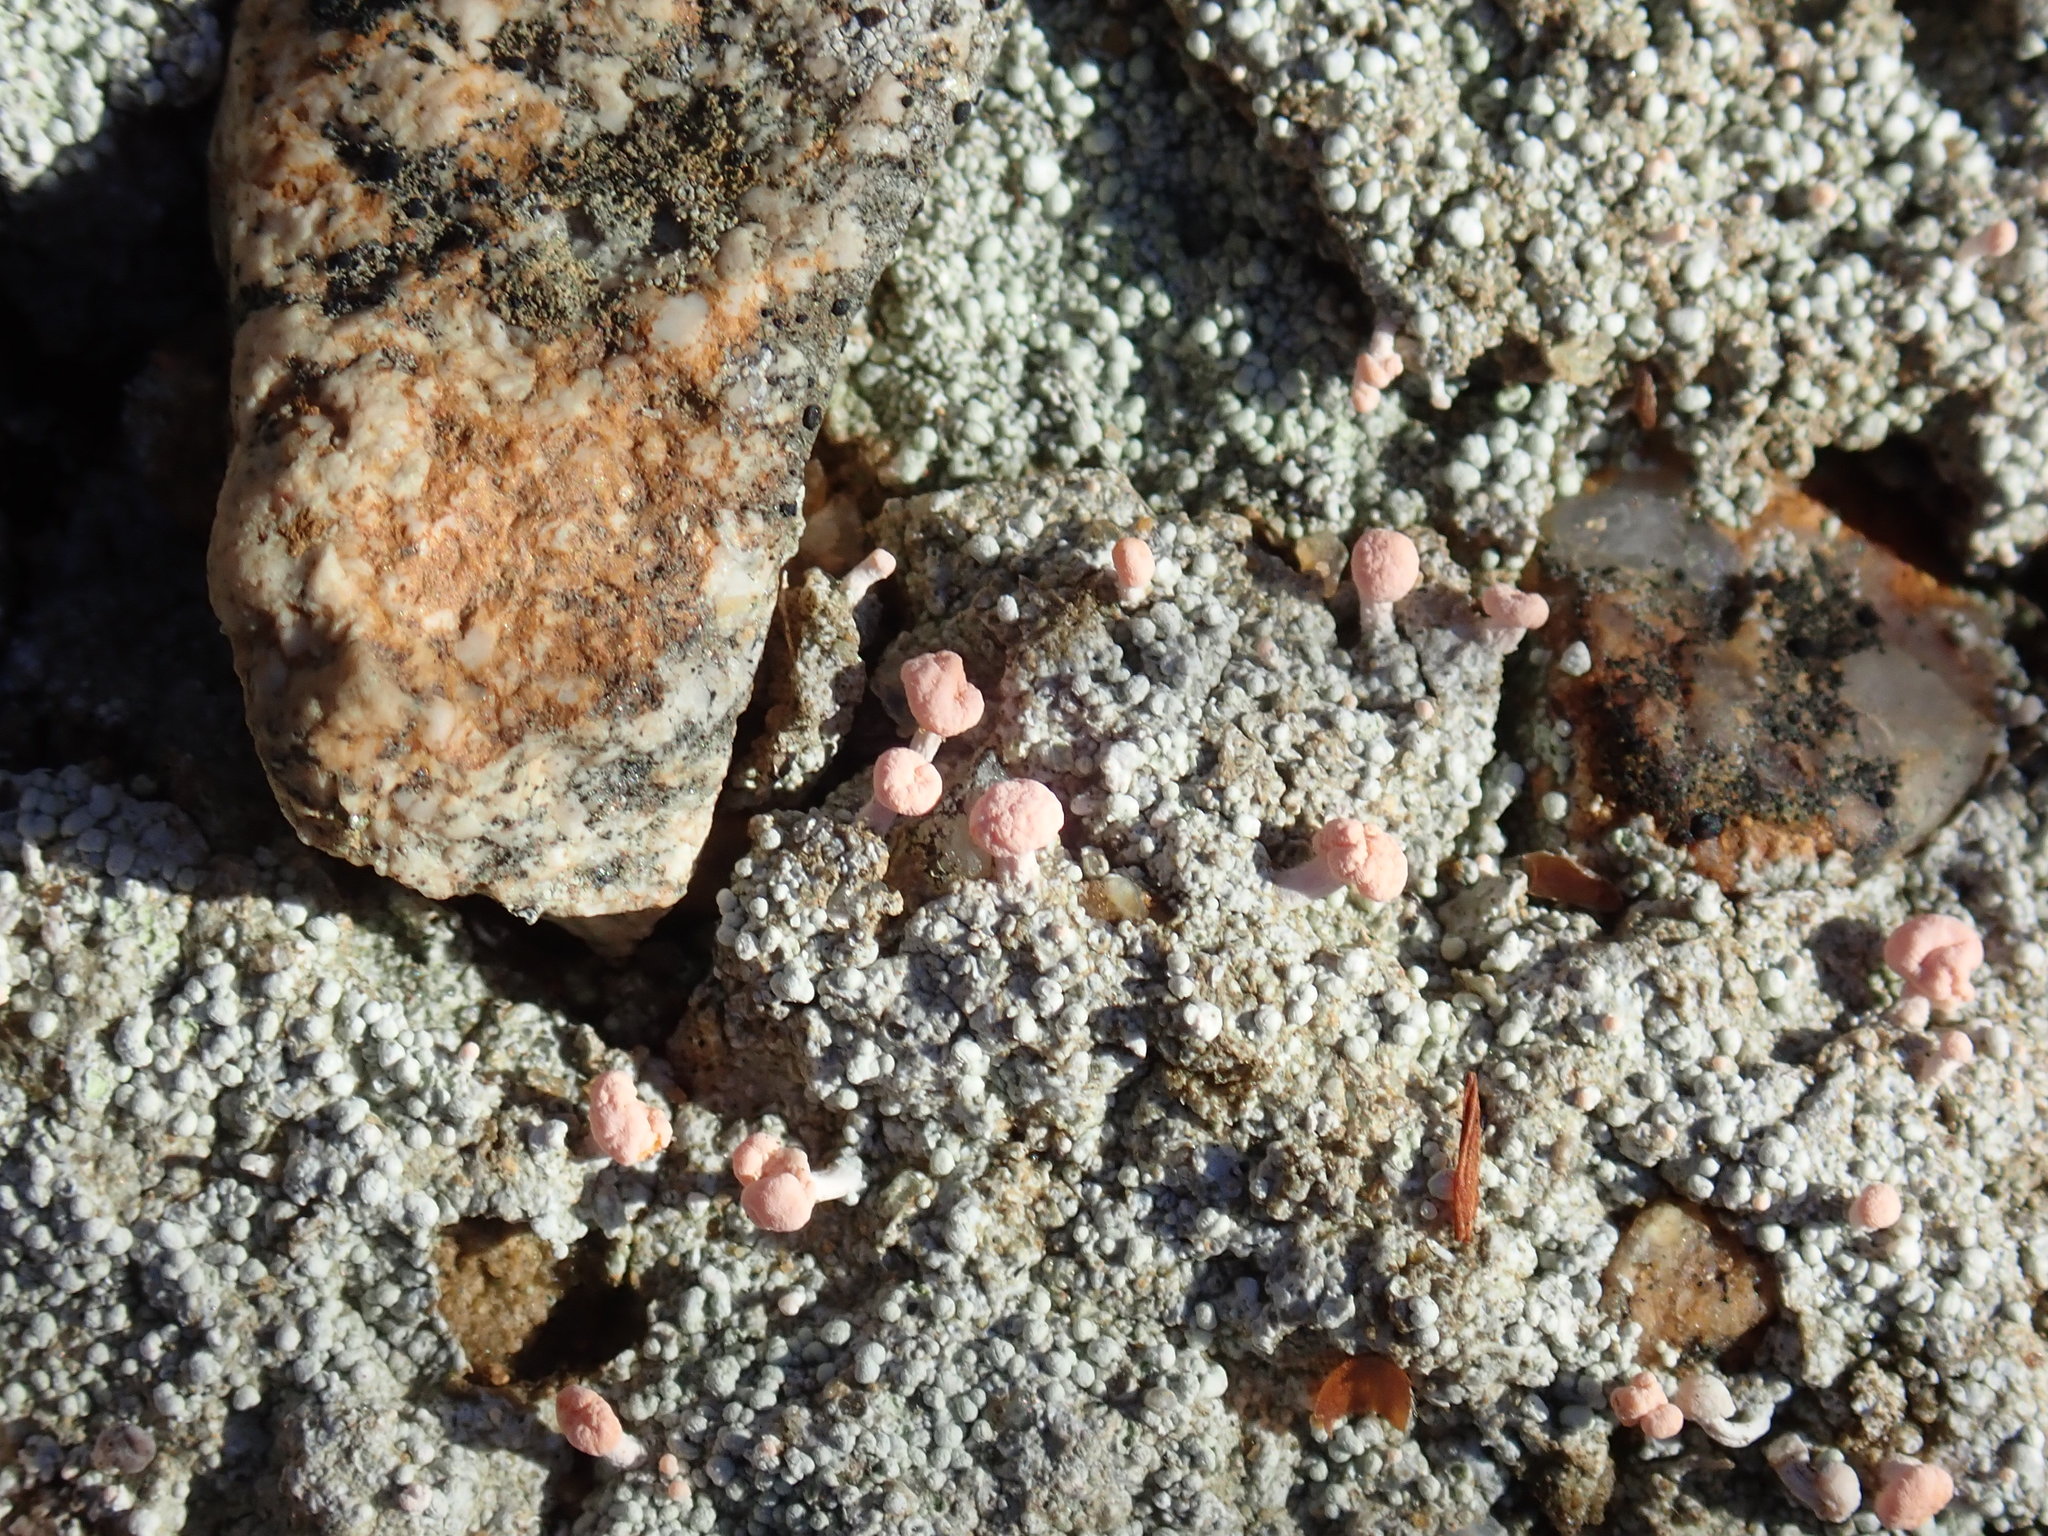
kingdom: Fungi
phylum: Ascomycota
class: Lecanoromycetes
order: Pertusariales
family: Icmadophilaceae
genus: Dibaeis
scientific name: Dibaeis baeomyces
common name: Pink earth lichen
